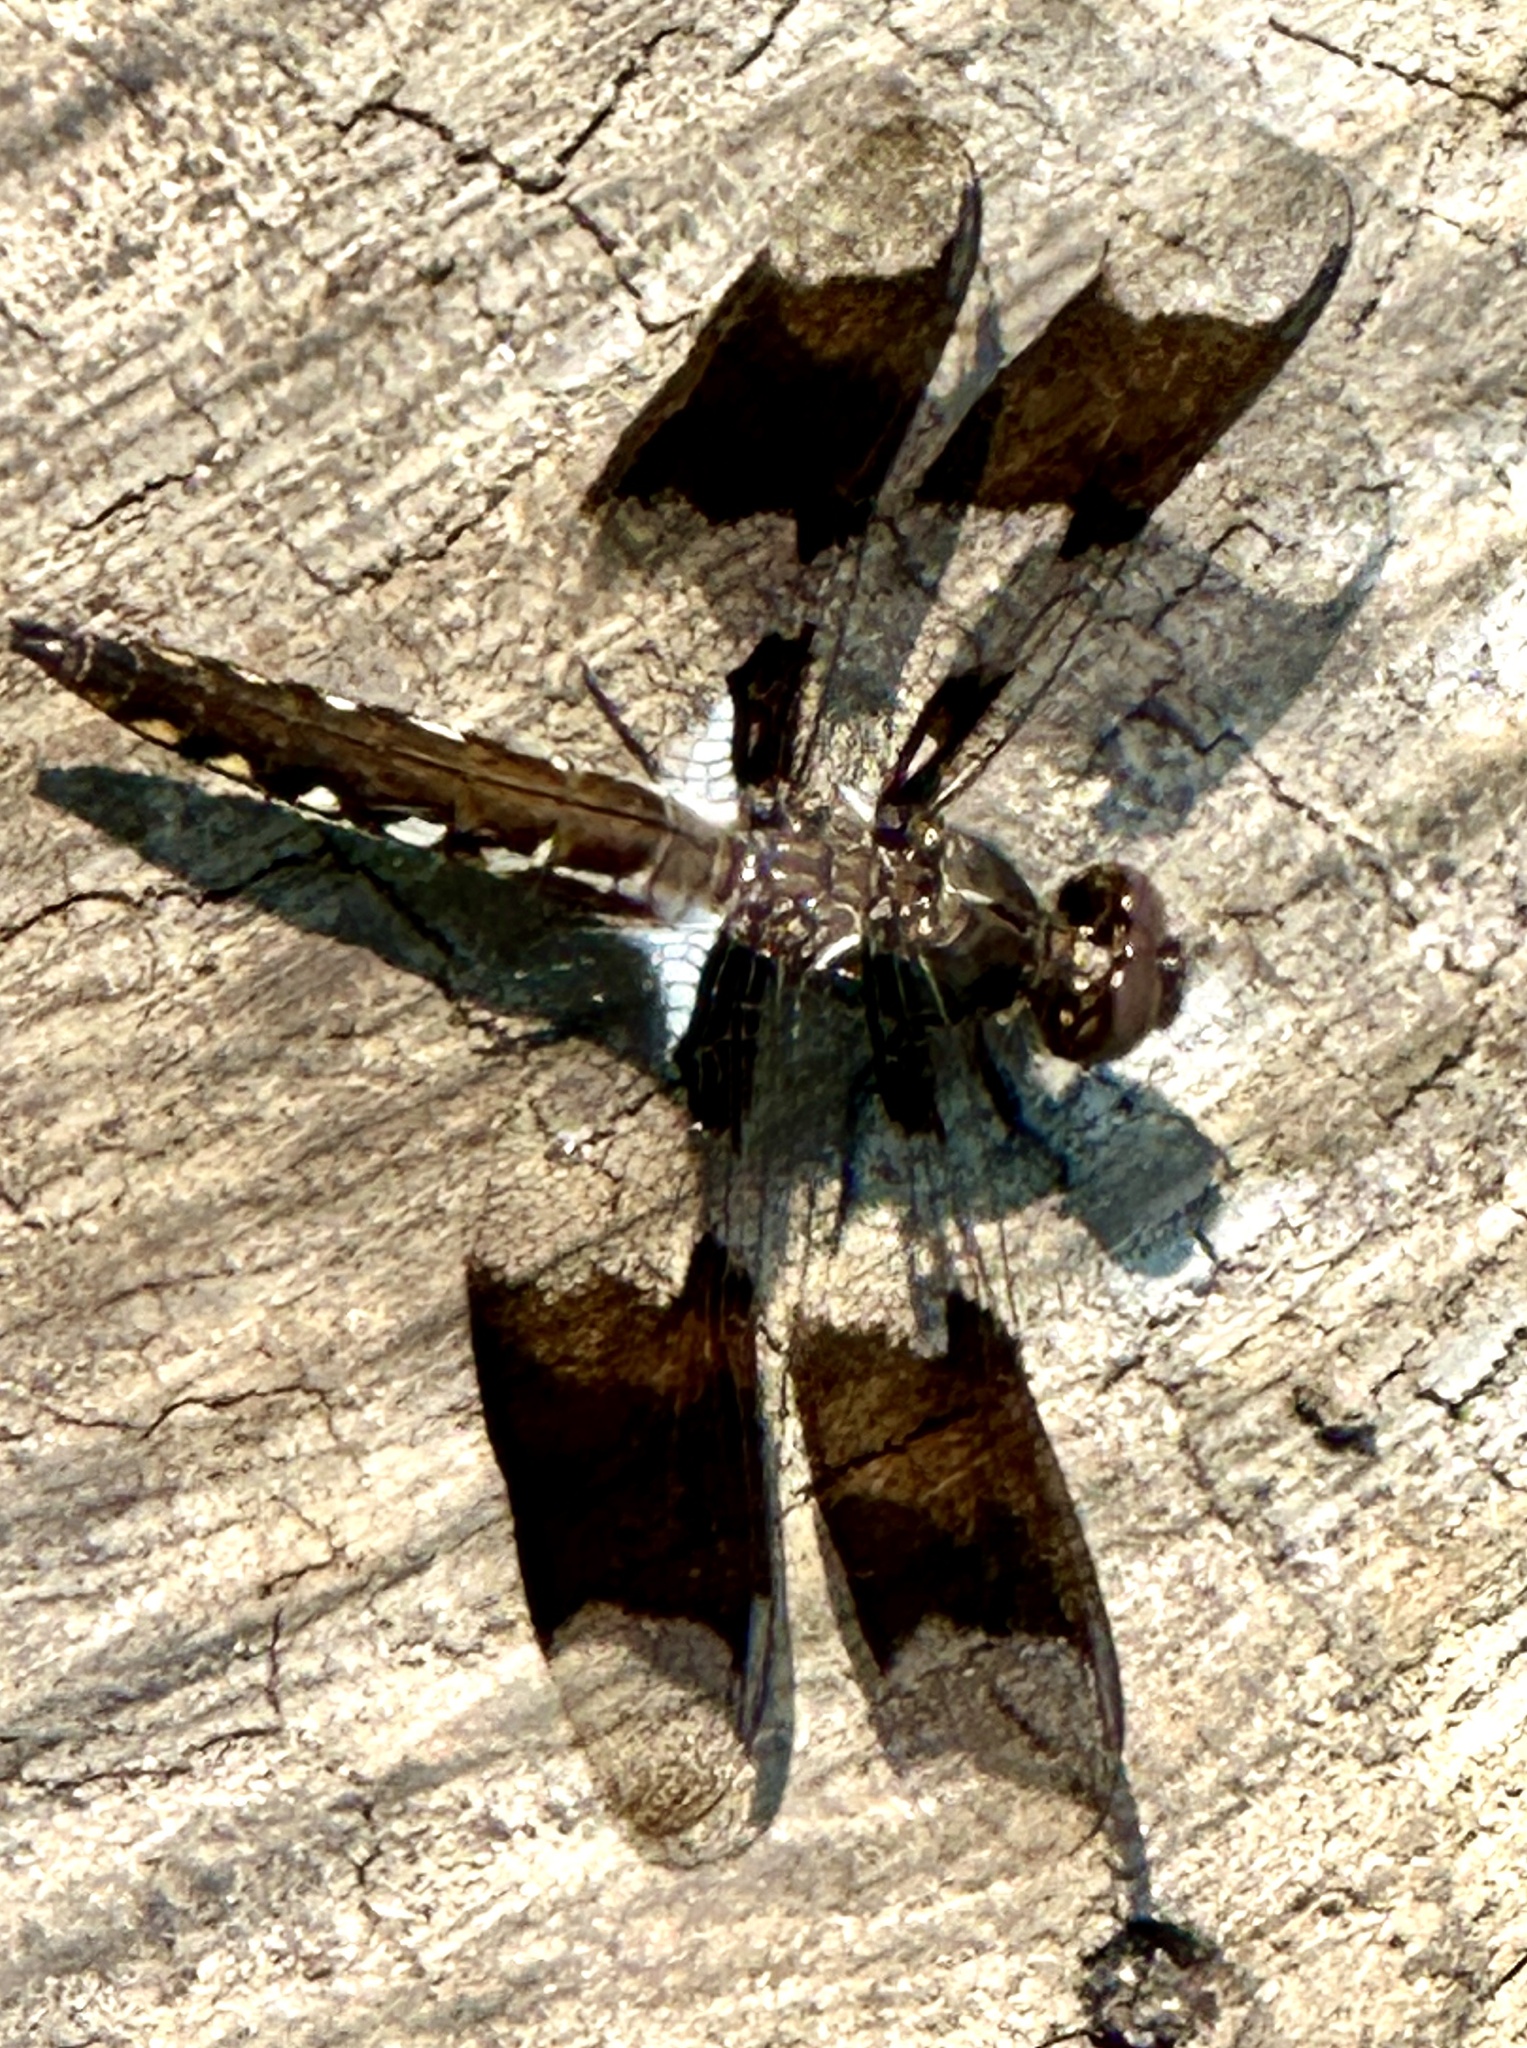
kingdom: Animalia
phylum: Arthropoda
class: Insecta
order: Odonata
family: Libellulidae
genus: Plathemis
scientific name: Plathemis lydia
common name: Common whitetail
